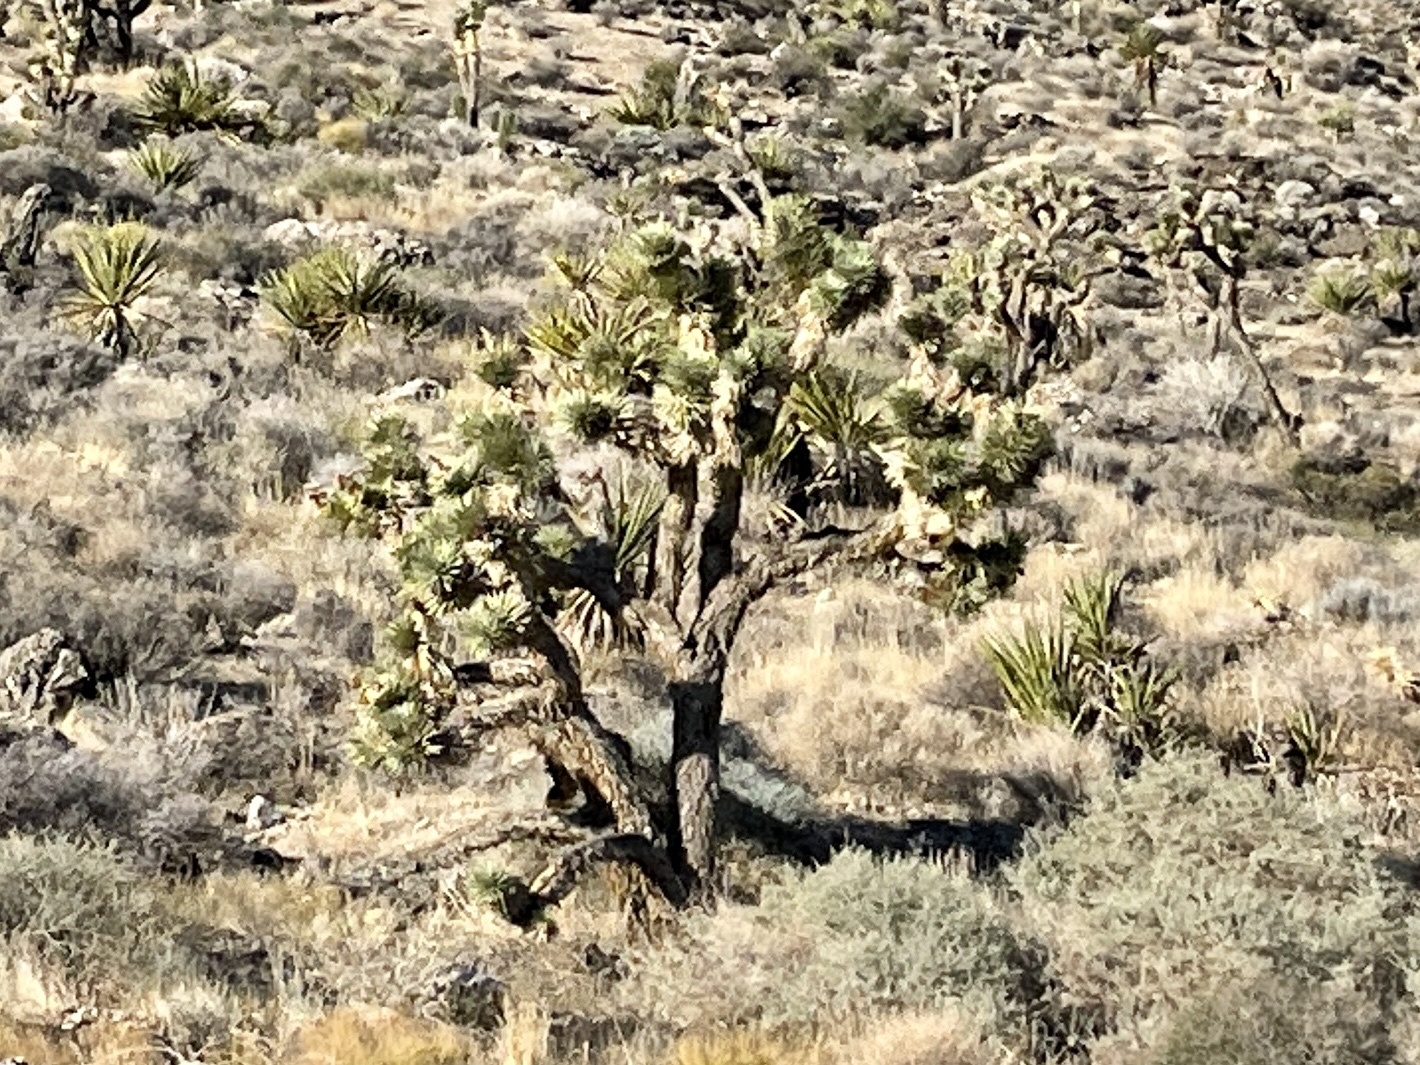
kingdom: Plantae
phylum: Tracheophyta
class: Liliopsida
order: Asparagales
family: Asparagaceae
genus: Yucca
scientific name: Yucca brevifolia
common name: Joshua tree
